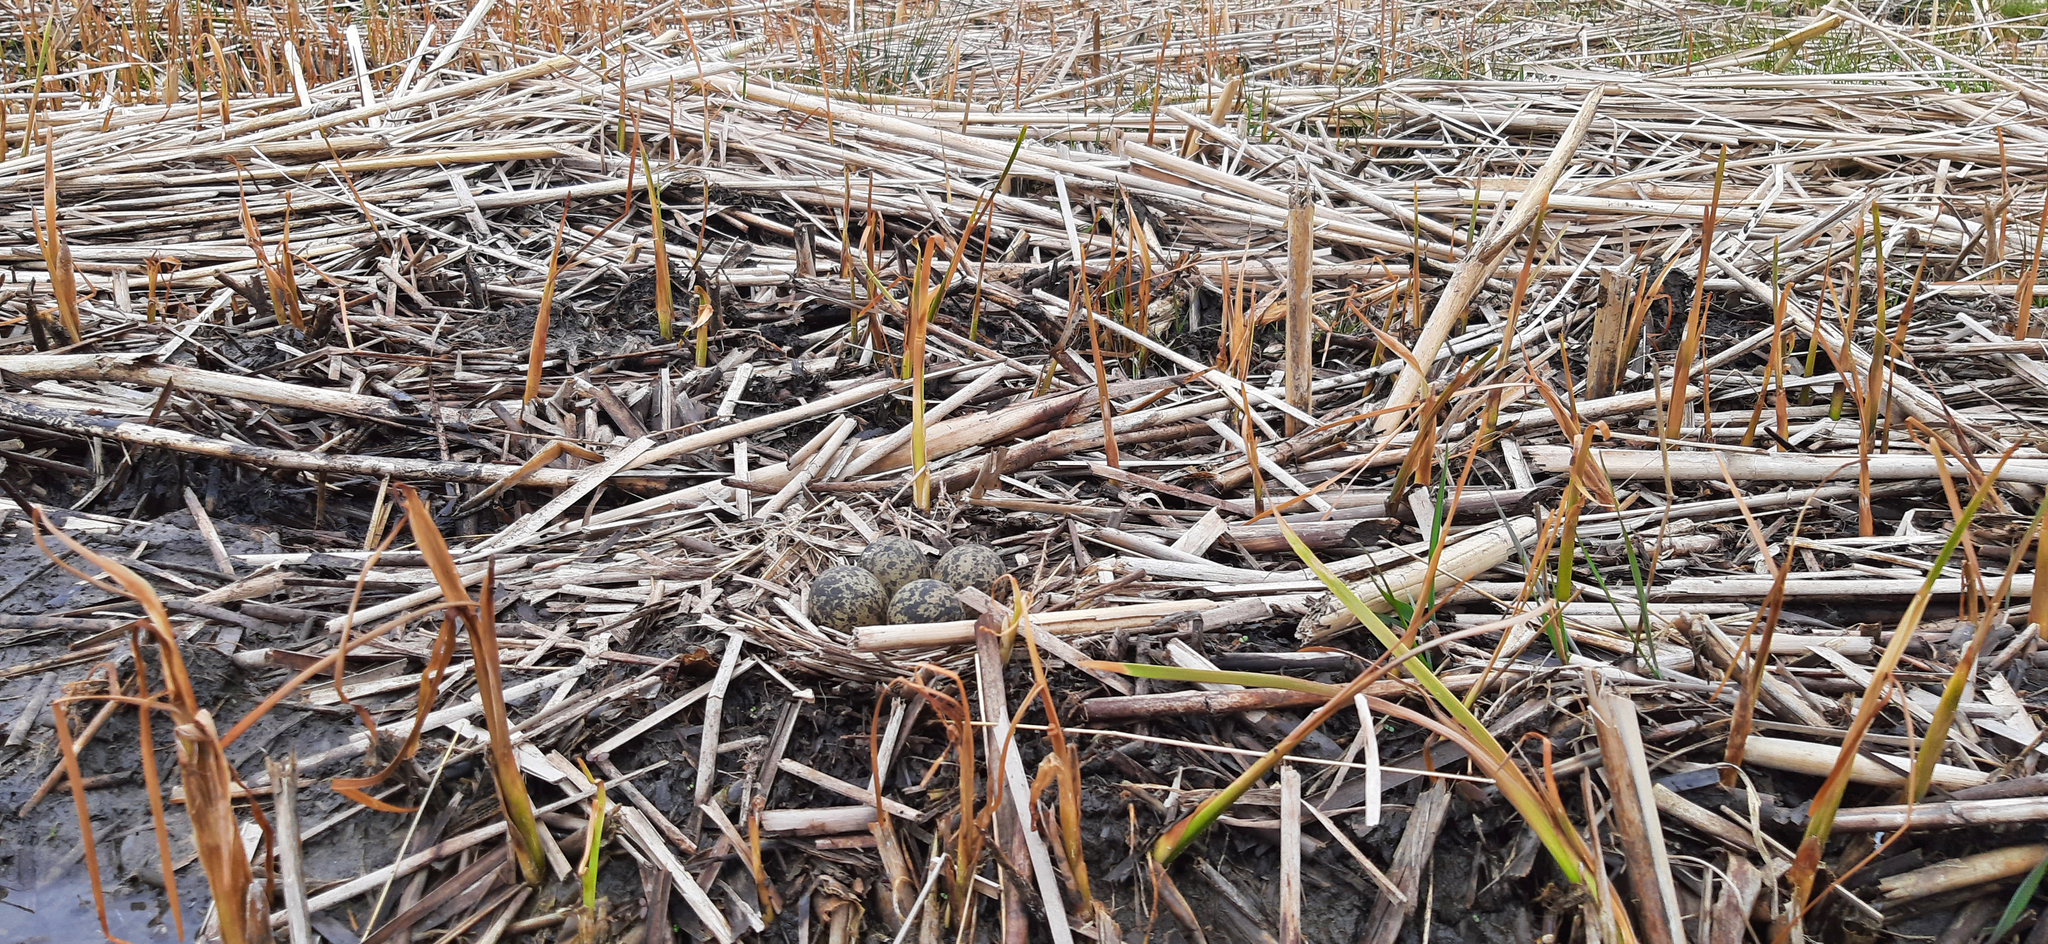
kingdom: Animalia
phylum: Chordata
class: Aves
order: Charadriiformes
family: Charadriidae
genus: Vanellus
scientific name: Vanellus vanellus
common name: Northern lapwing
